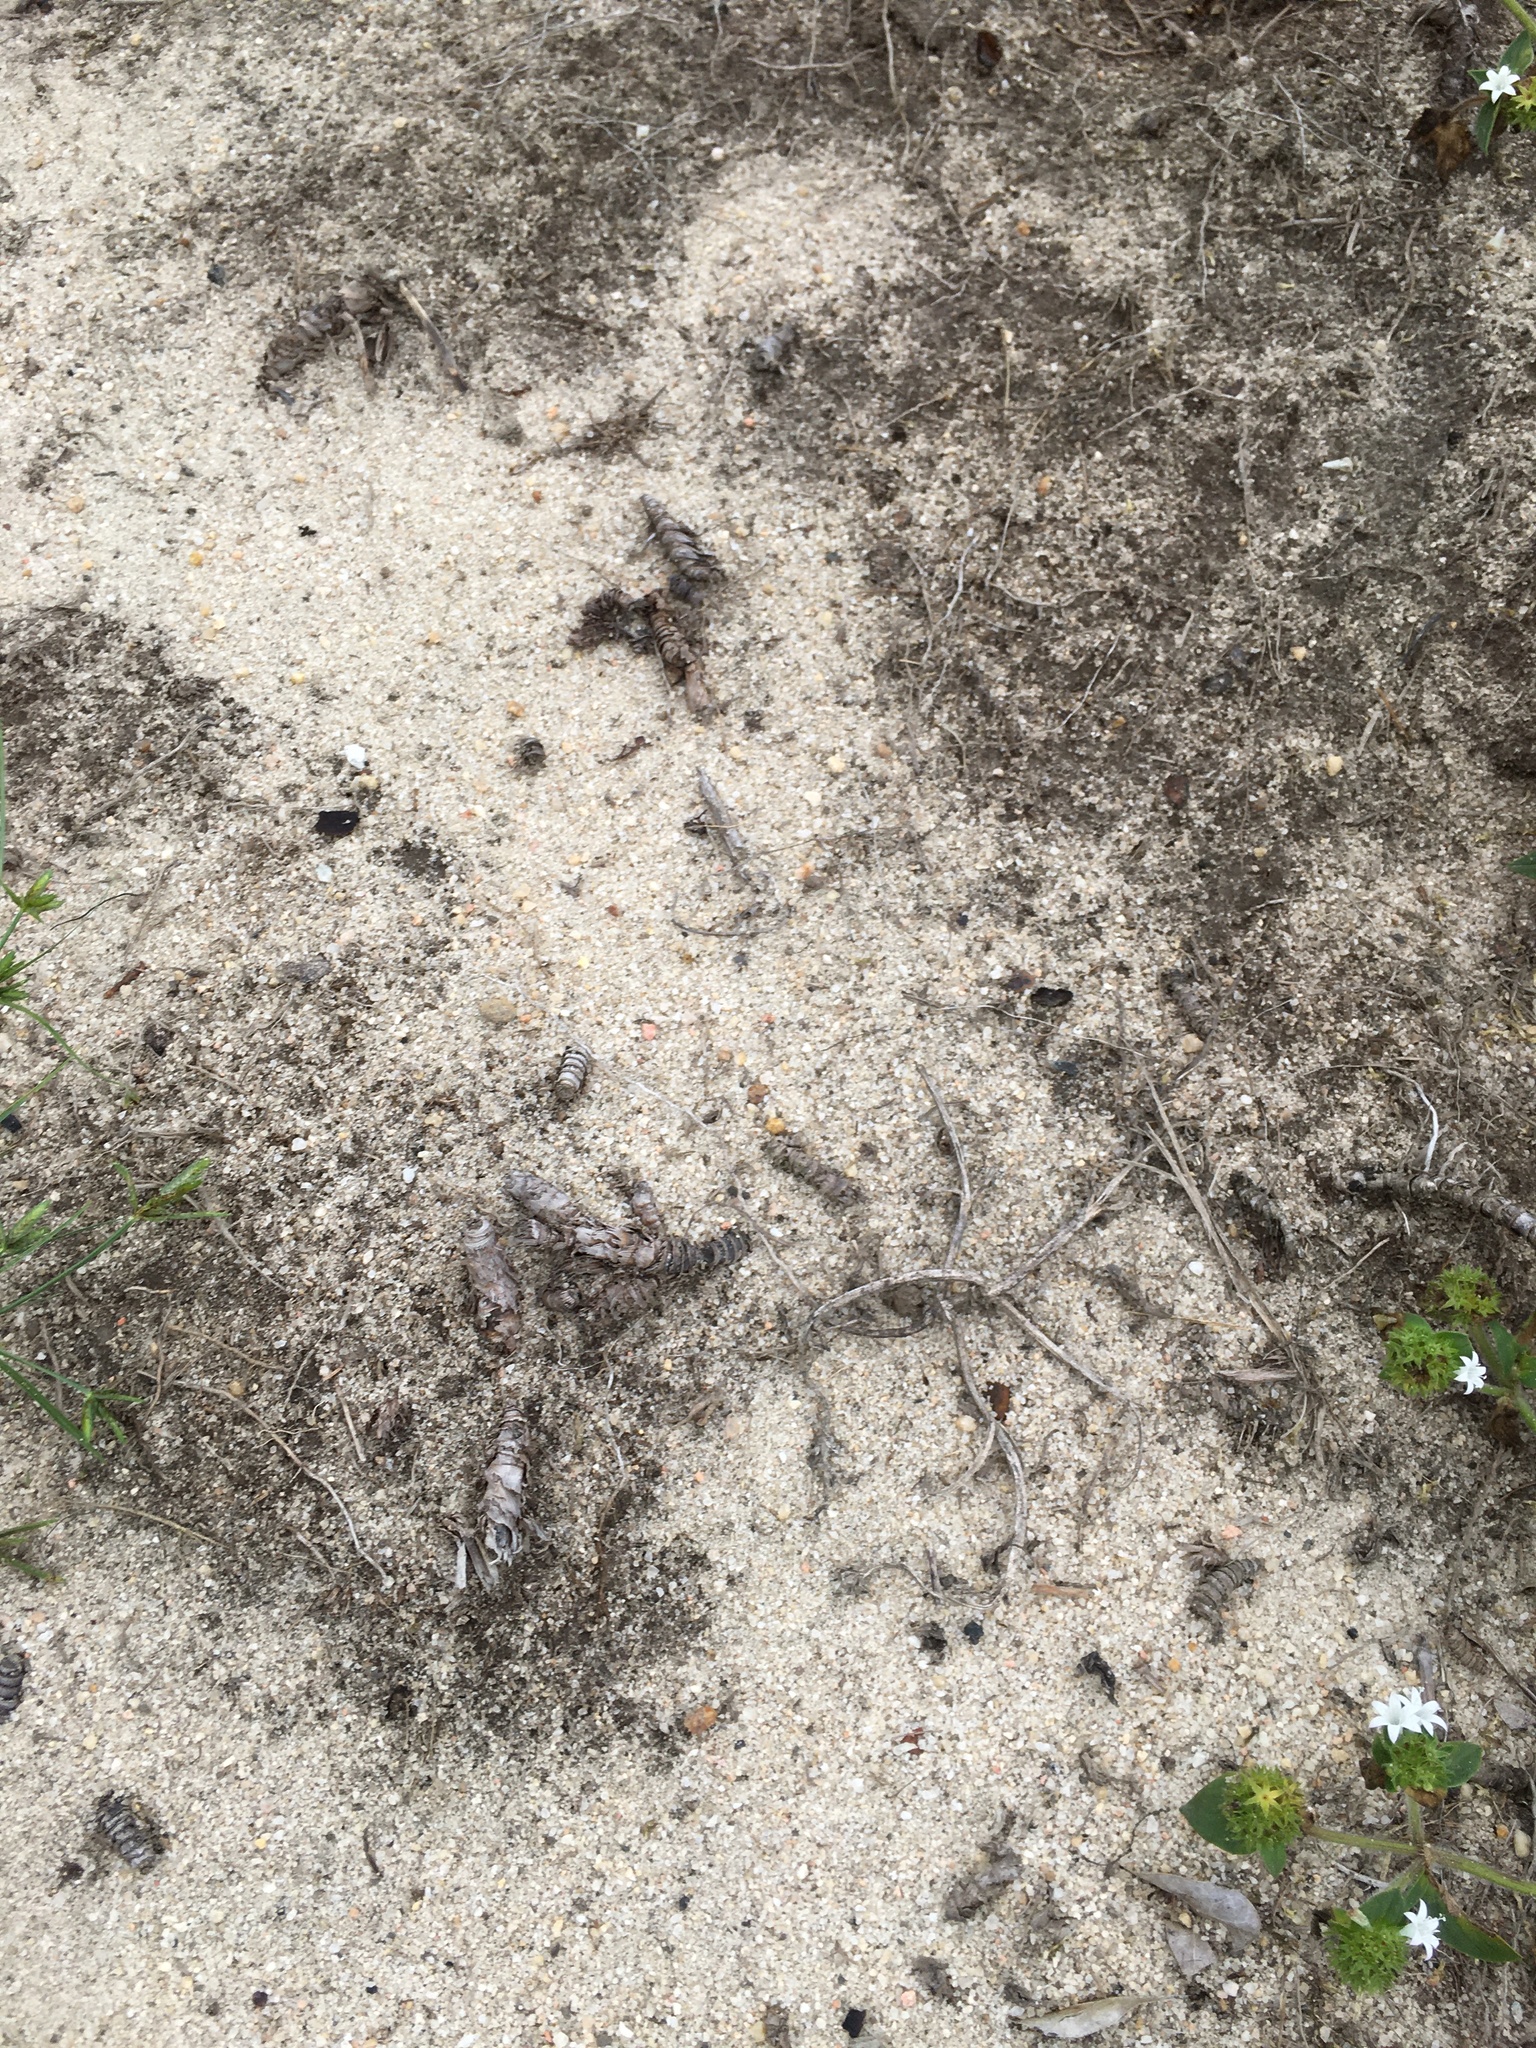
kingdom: Plantae
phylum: Tracheophyta
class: Magnoliopsida
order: Malpighiales
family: Euphorbiaceae
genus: Croton
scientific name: Croton glandulosus
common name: Tropic croton
